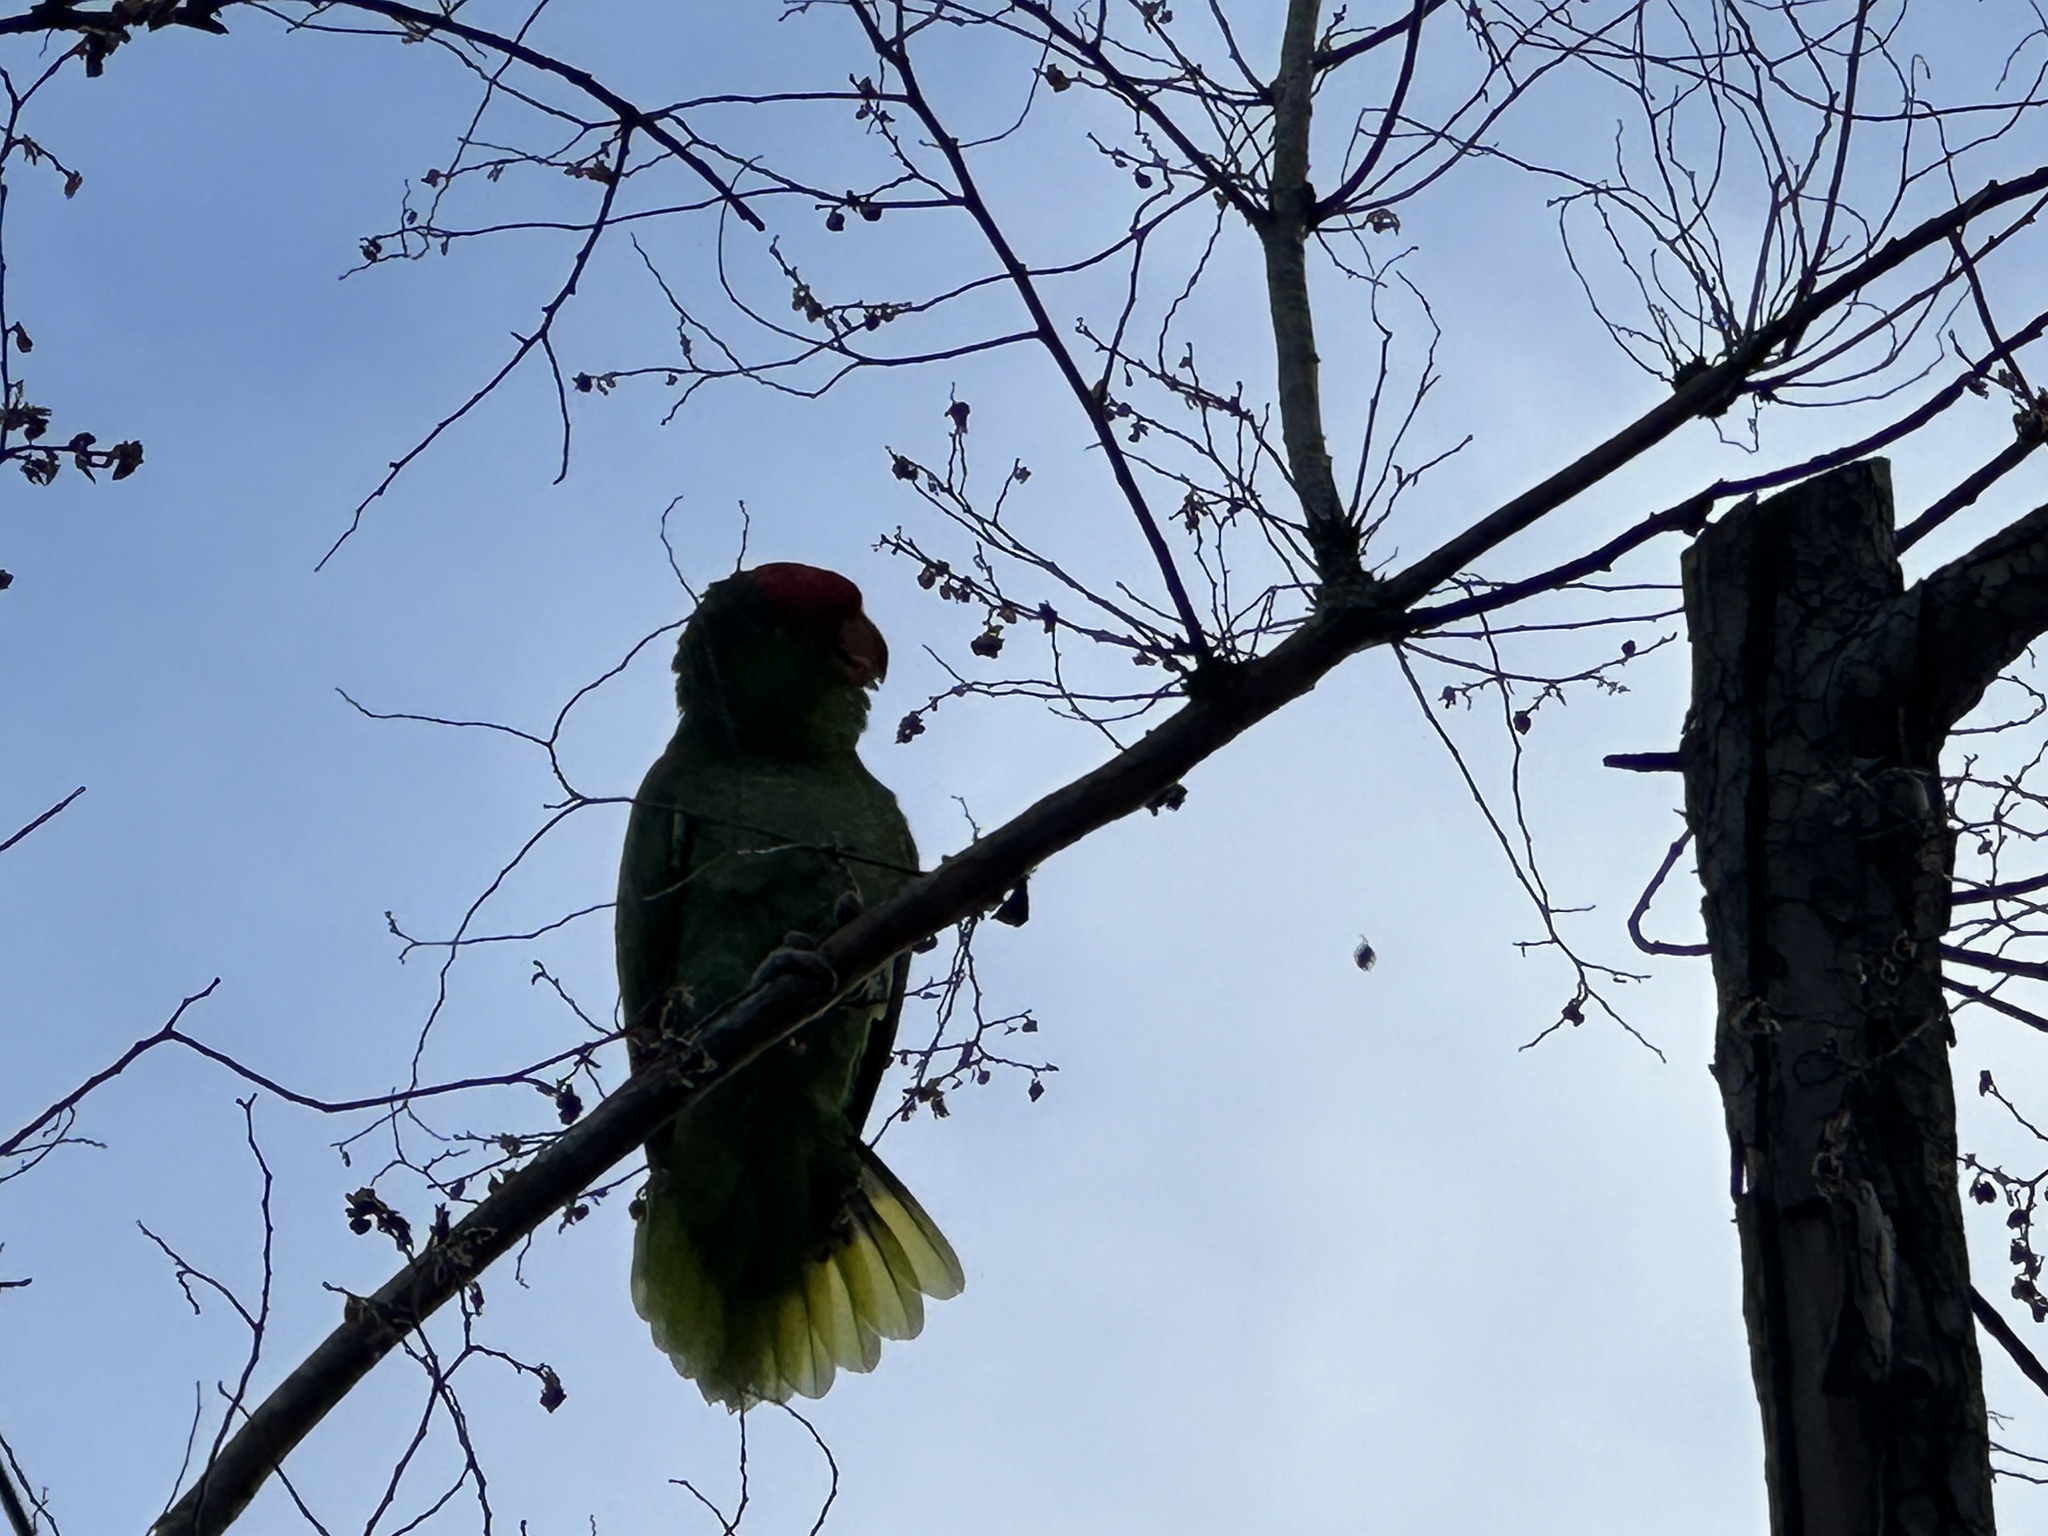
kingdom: Animalia
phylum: Chordata
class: Aves
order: Psittaciformes
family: Psittacidae
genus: Amazona
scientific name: Amazona viridigenalis
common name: Red-crowned amazon
